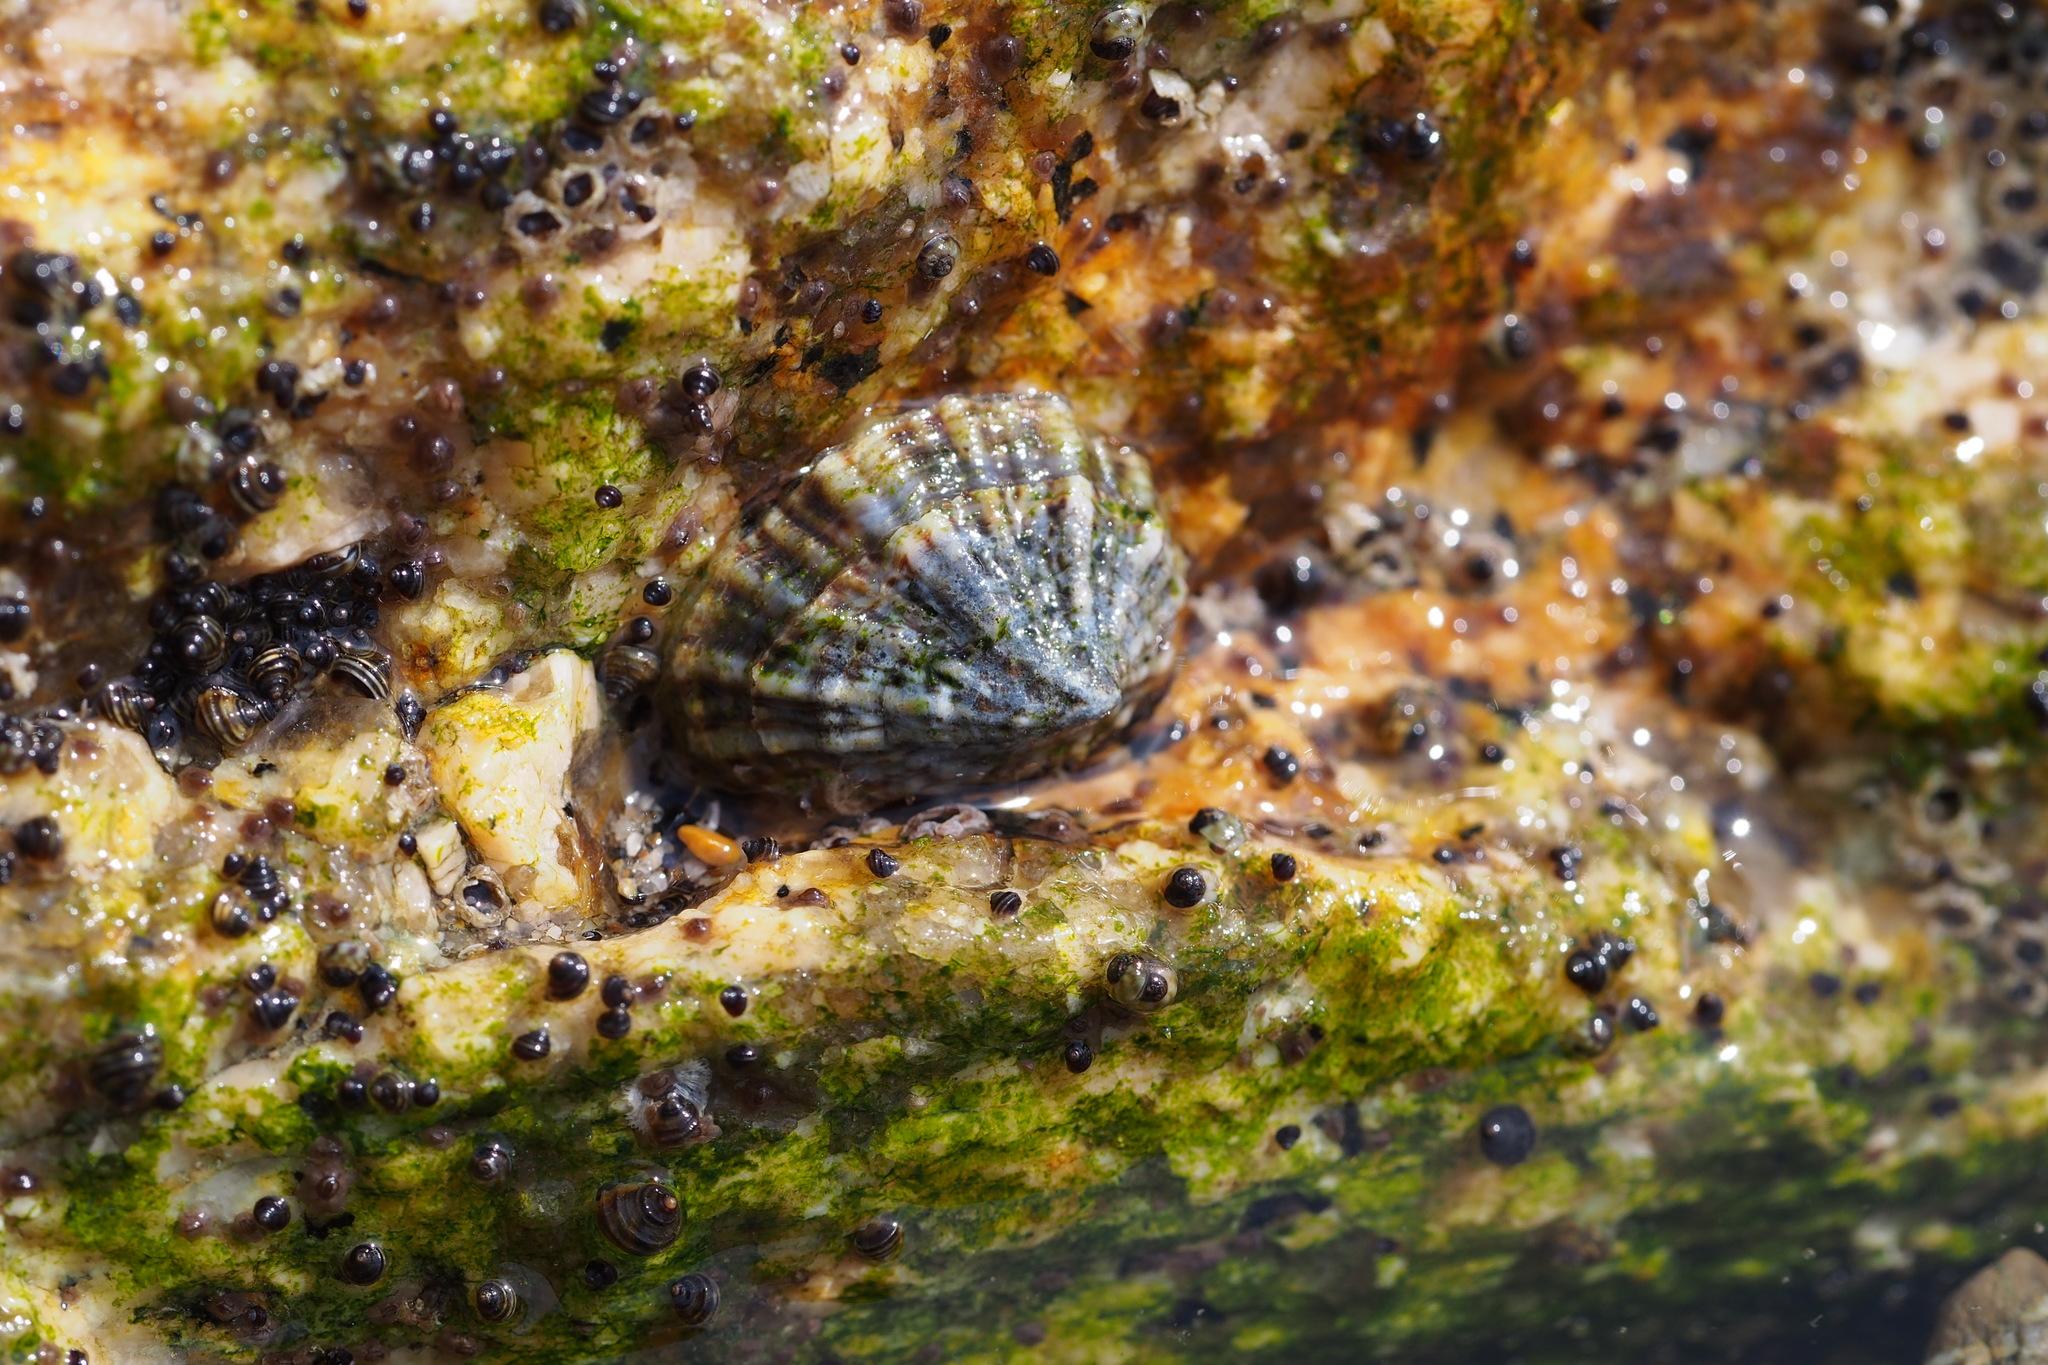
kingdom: Animalia
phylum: Mollusca
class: Gastropoda
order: Siphonariida
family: Siphonariidae
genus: Siphonaria
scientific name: Siphonaria japonica
